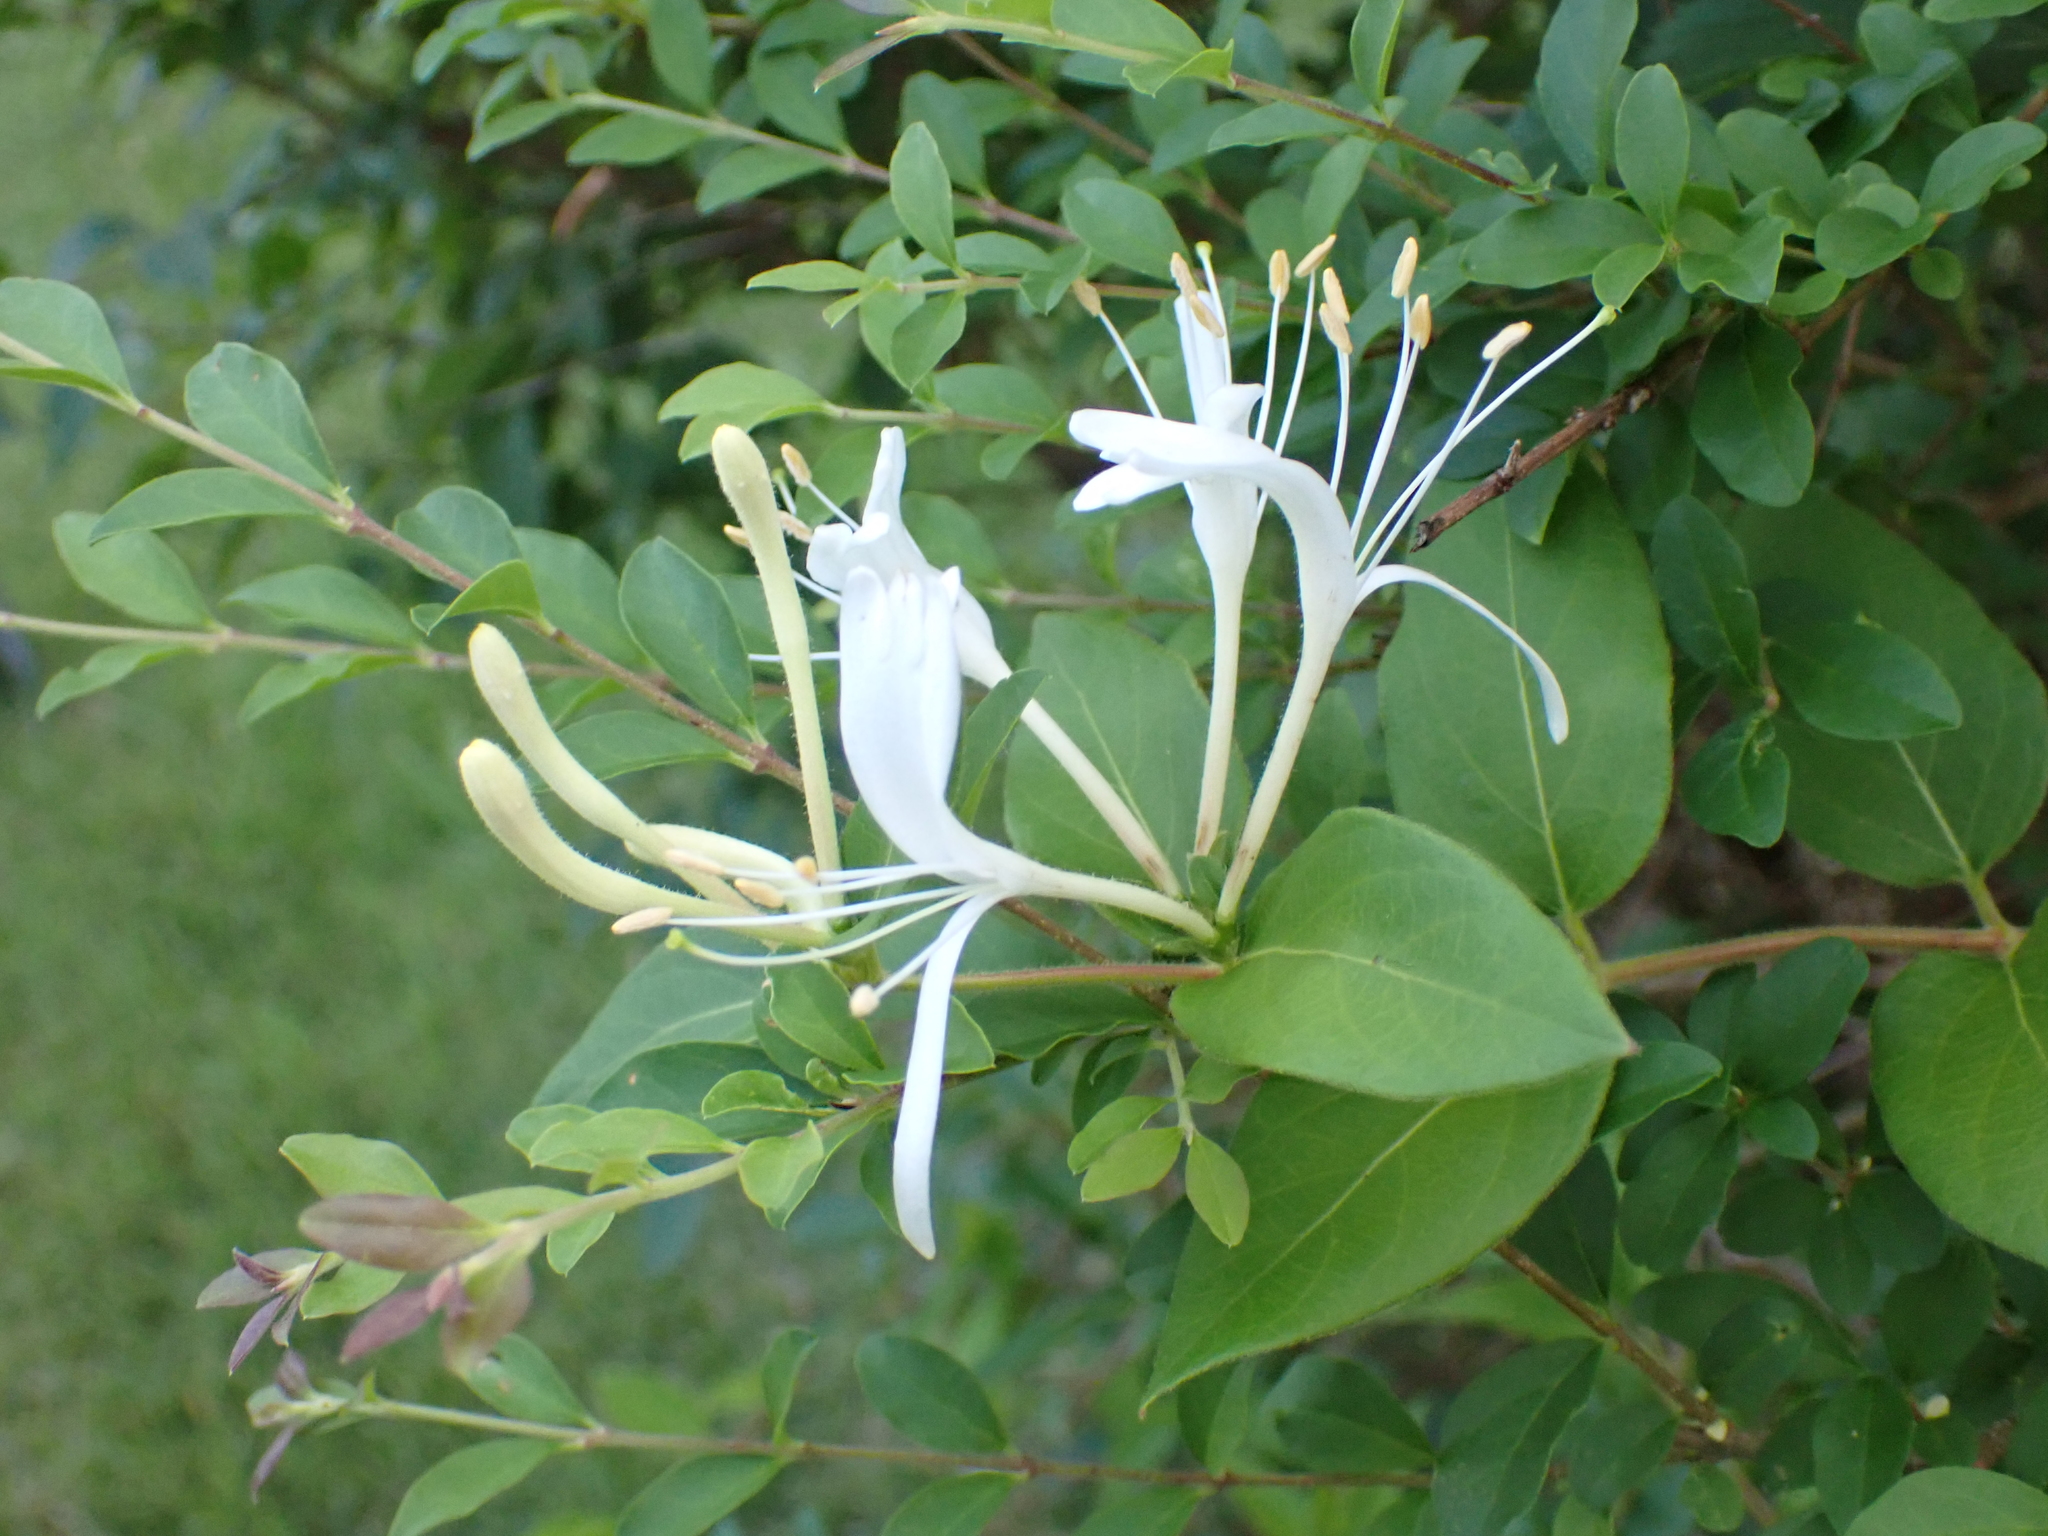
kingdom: Plantae
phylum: Tracheophyta
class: Magnoliopsida
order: Dipsacales
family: Caprifoliaceae
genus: Lonicera
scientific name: Lonicera japonica
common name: Japanese honeysuckle
